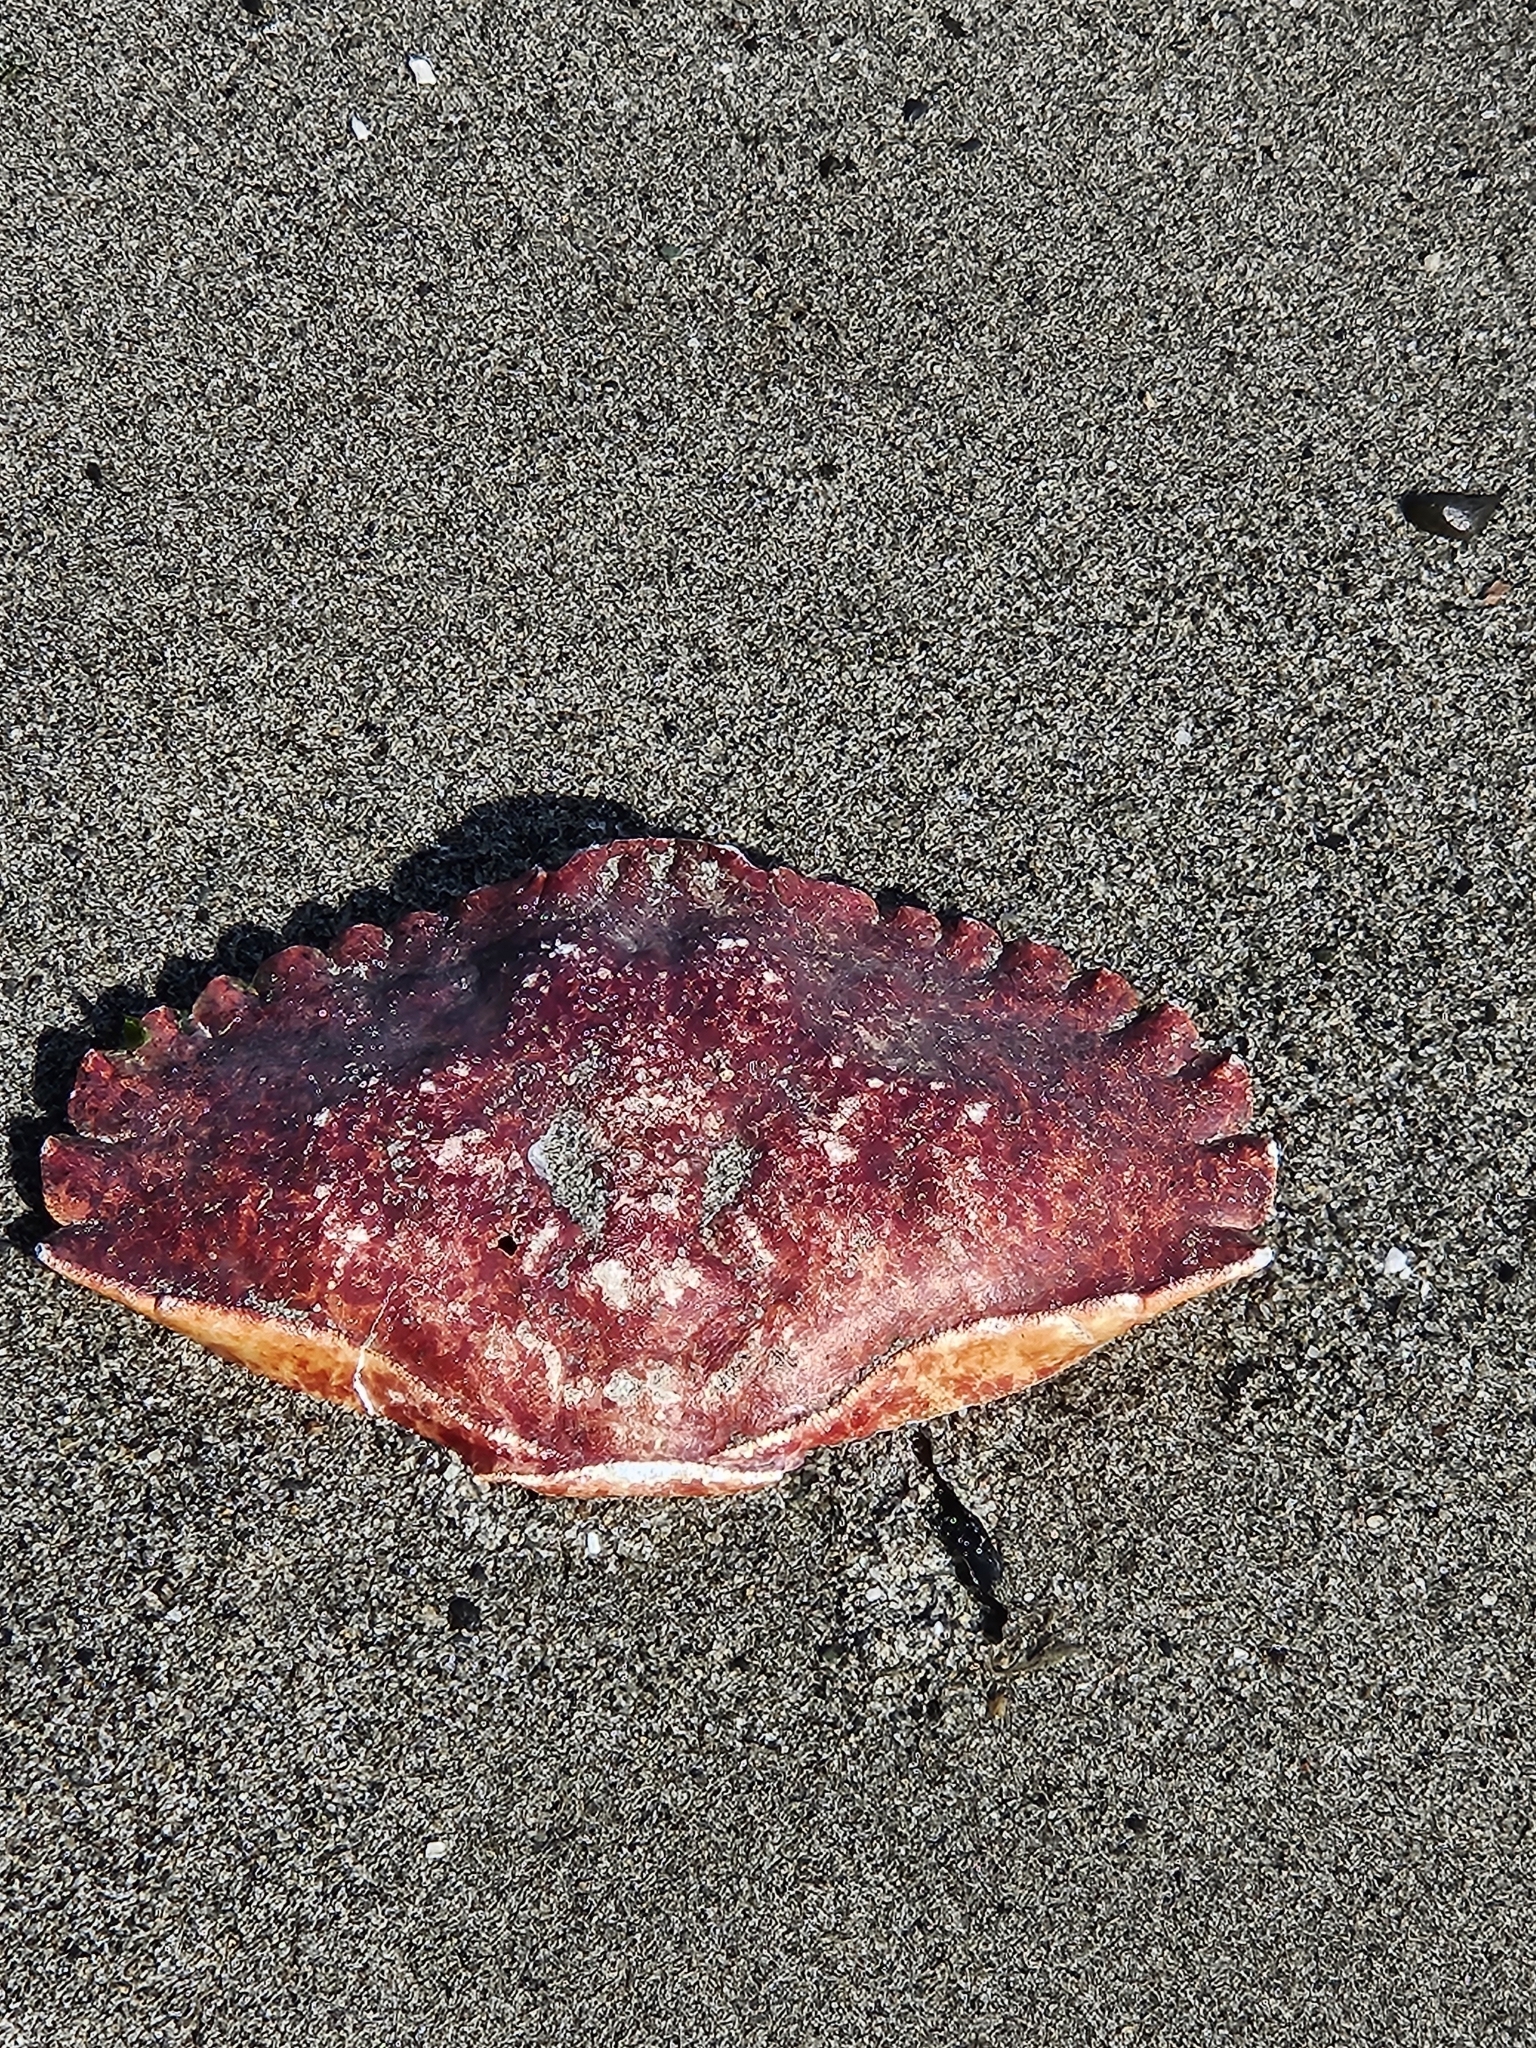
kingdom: Animalia
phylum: Arthropoda
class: Malacostraca
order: Decapoda
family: Cancridae
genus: Cancer
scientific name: Cancer productus
